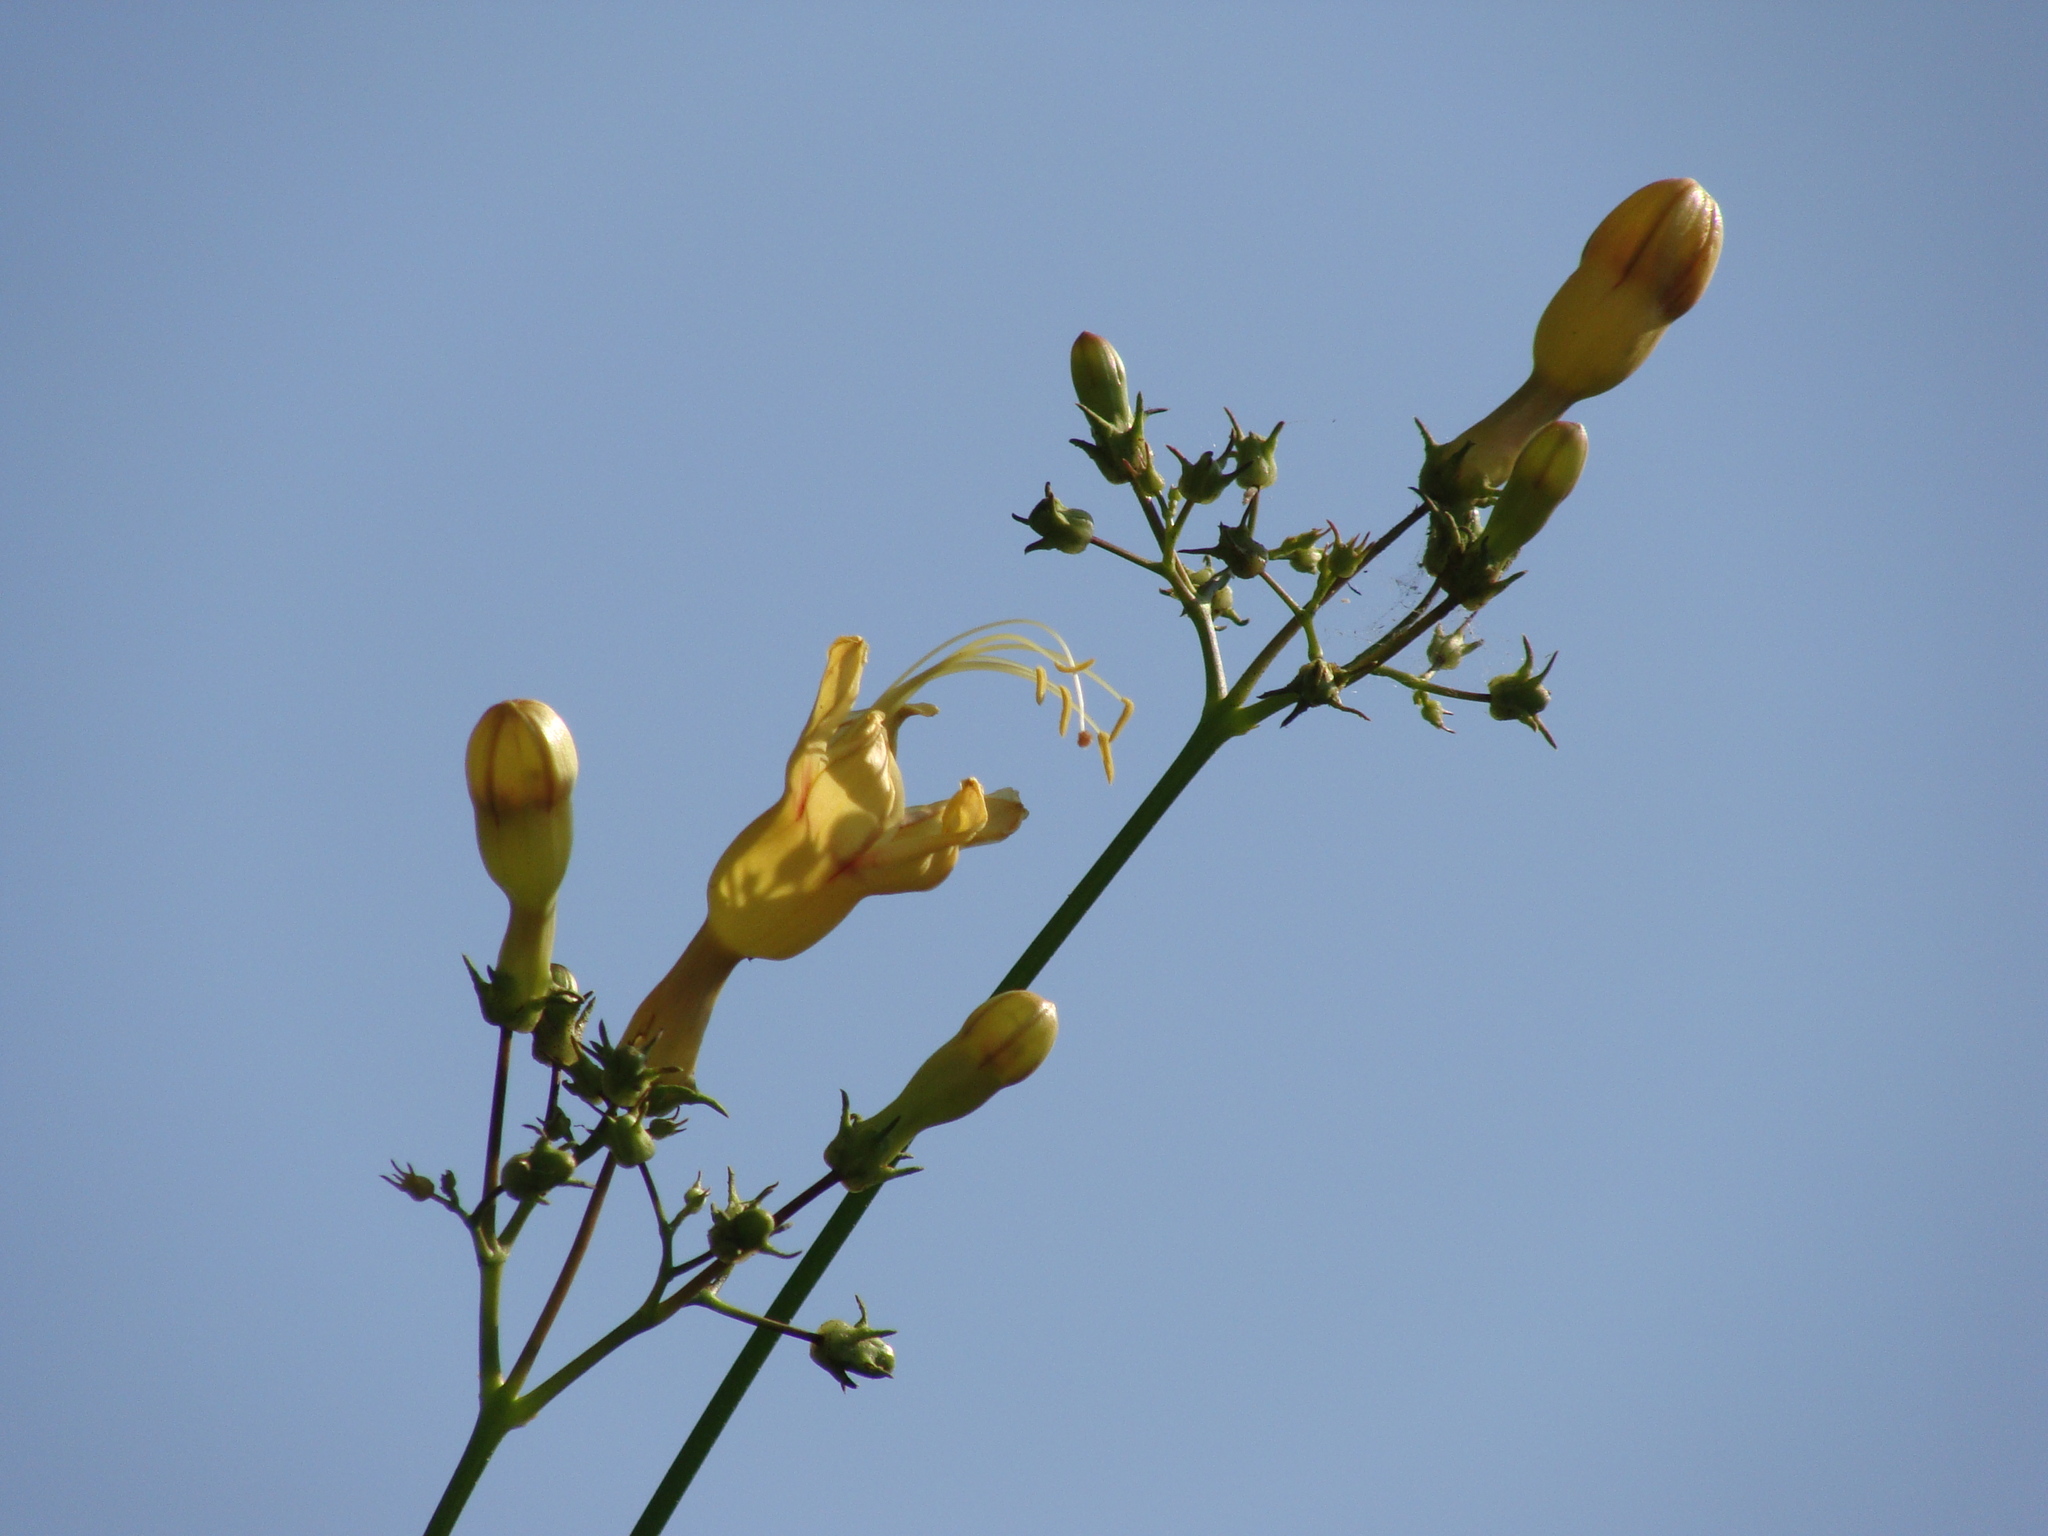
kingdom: Plantae
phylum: Tracheophyta
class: Magnoliopsida
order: Solanales
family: Convolvulaceae
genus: Ipomoea
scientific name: Ipomoea neei
